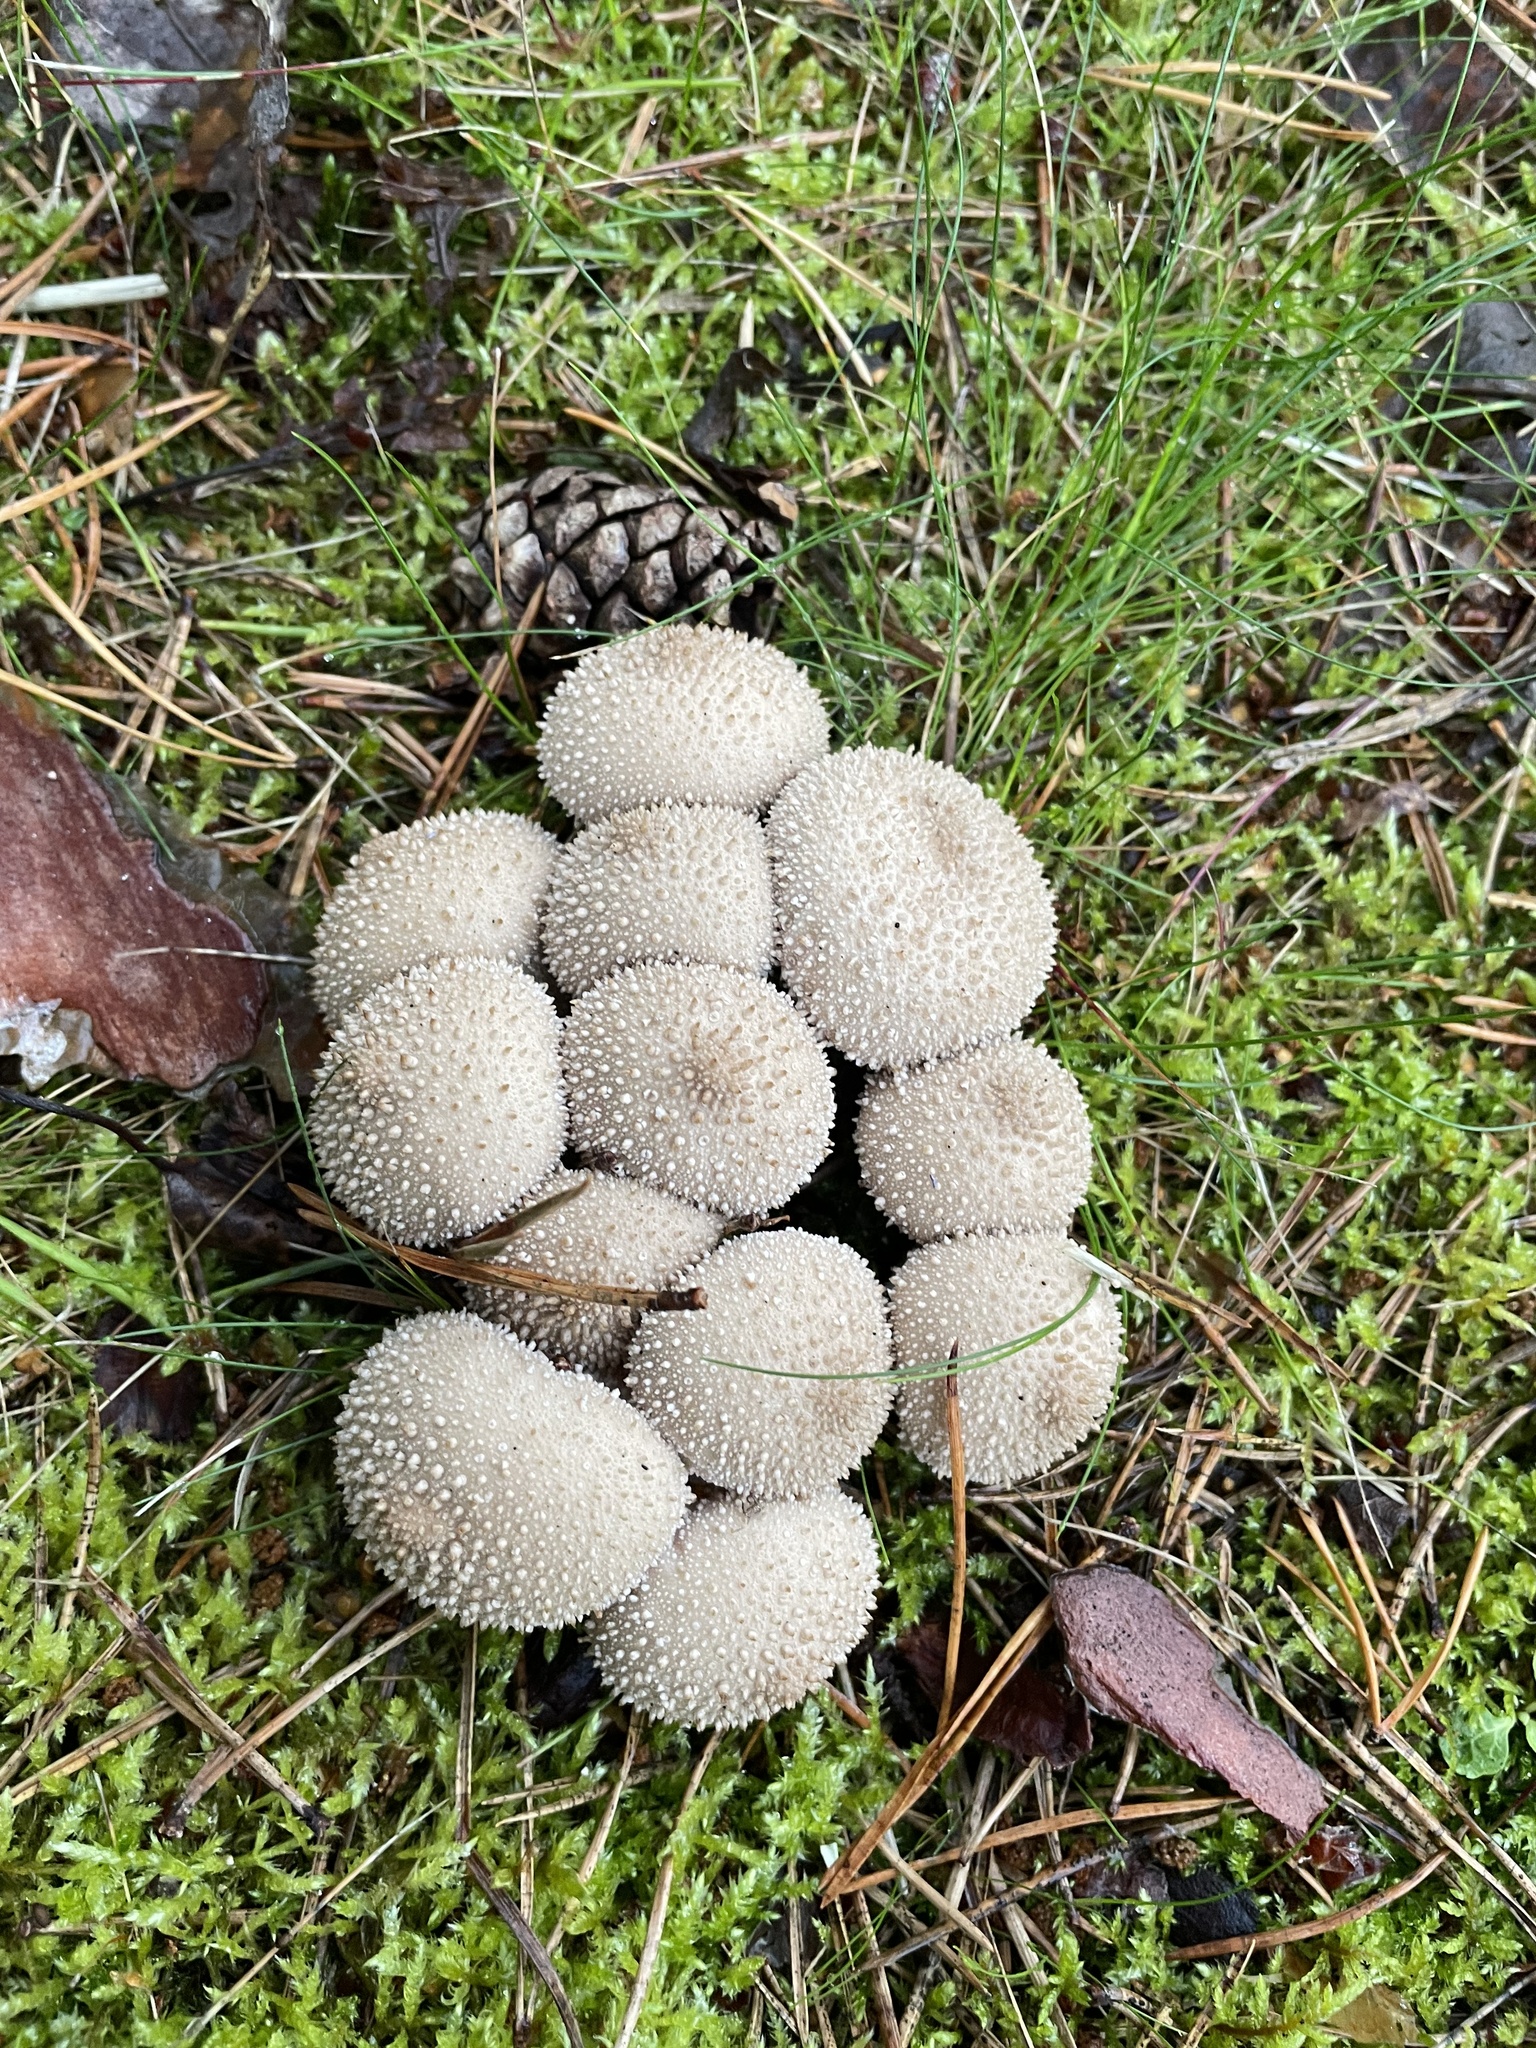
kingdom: Fungi
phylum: Basidiomycota
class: Agaricomycetes
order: Agaricales
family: Lycoperdaceae
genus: Lycoperdon
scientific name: Lycoperdon perlatum
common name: Common puffball
